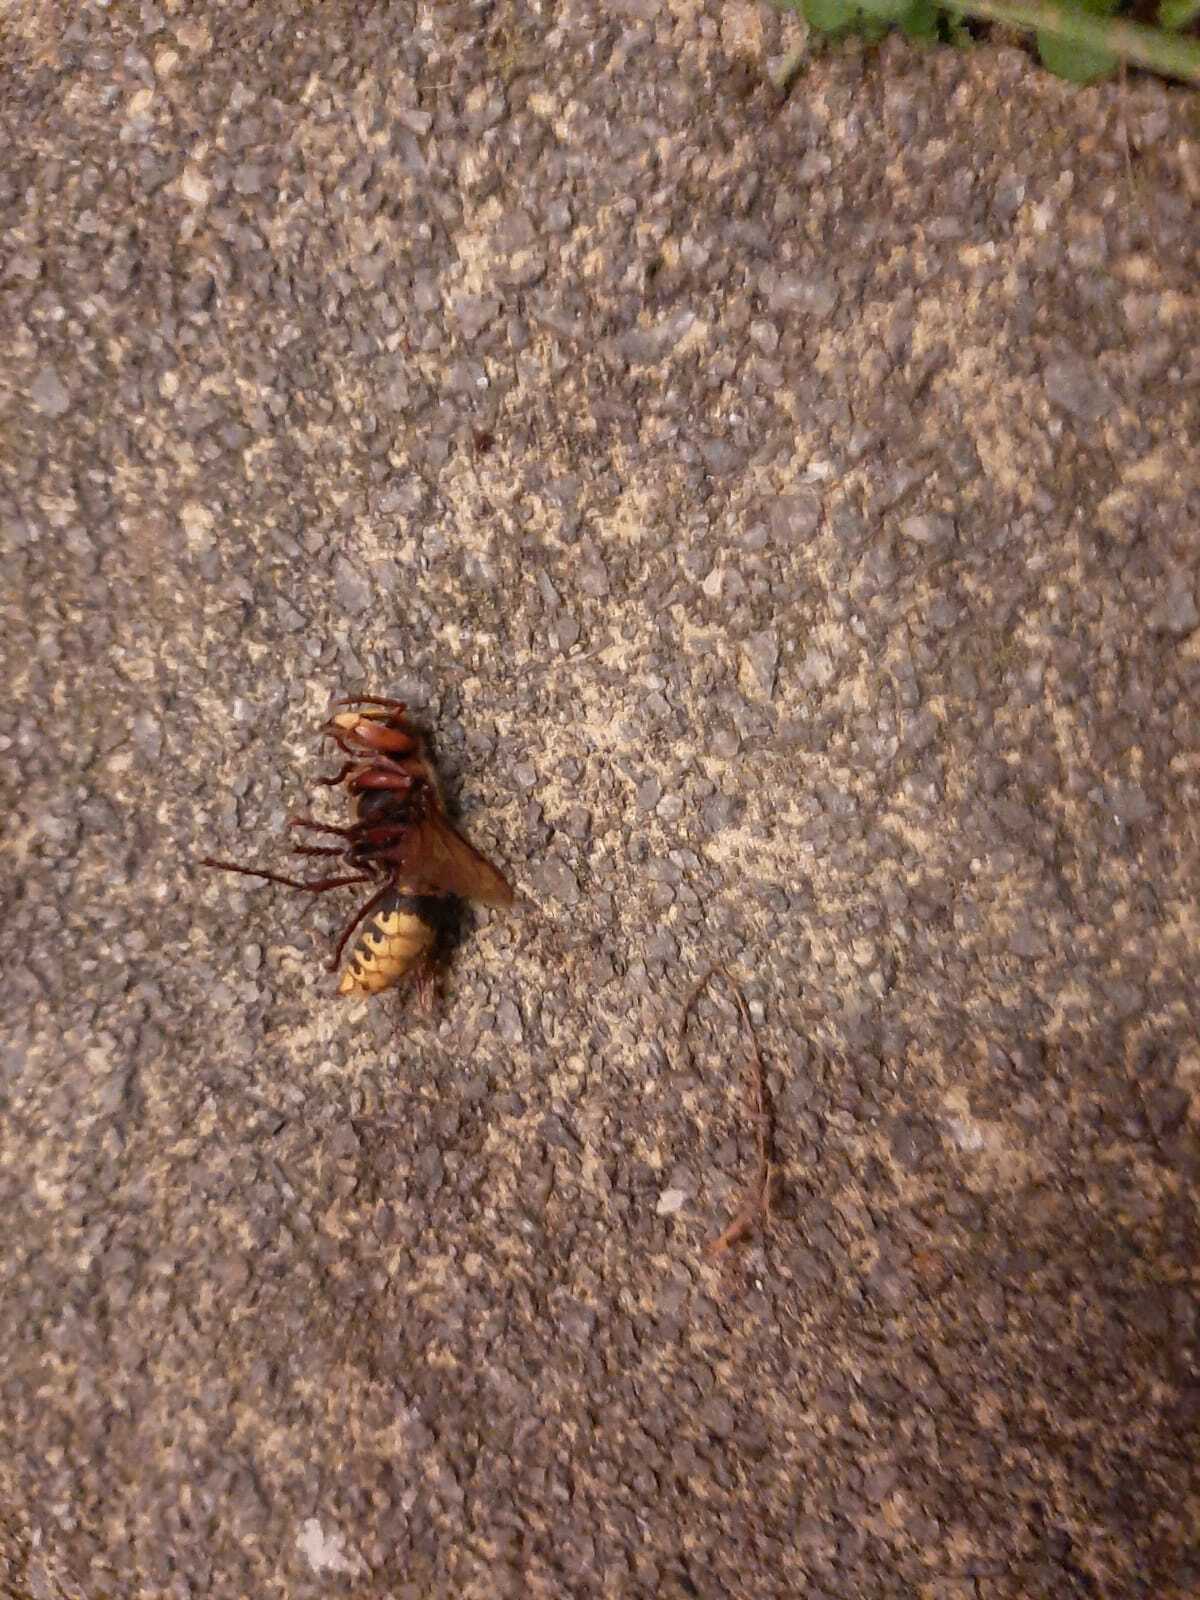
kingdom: Animalia
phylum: Arthropoda
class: Insecta
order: Hymenoptera
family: Vespidae
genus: Vespa
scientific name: Vespa crabro
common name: Hornet
